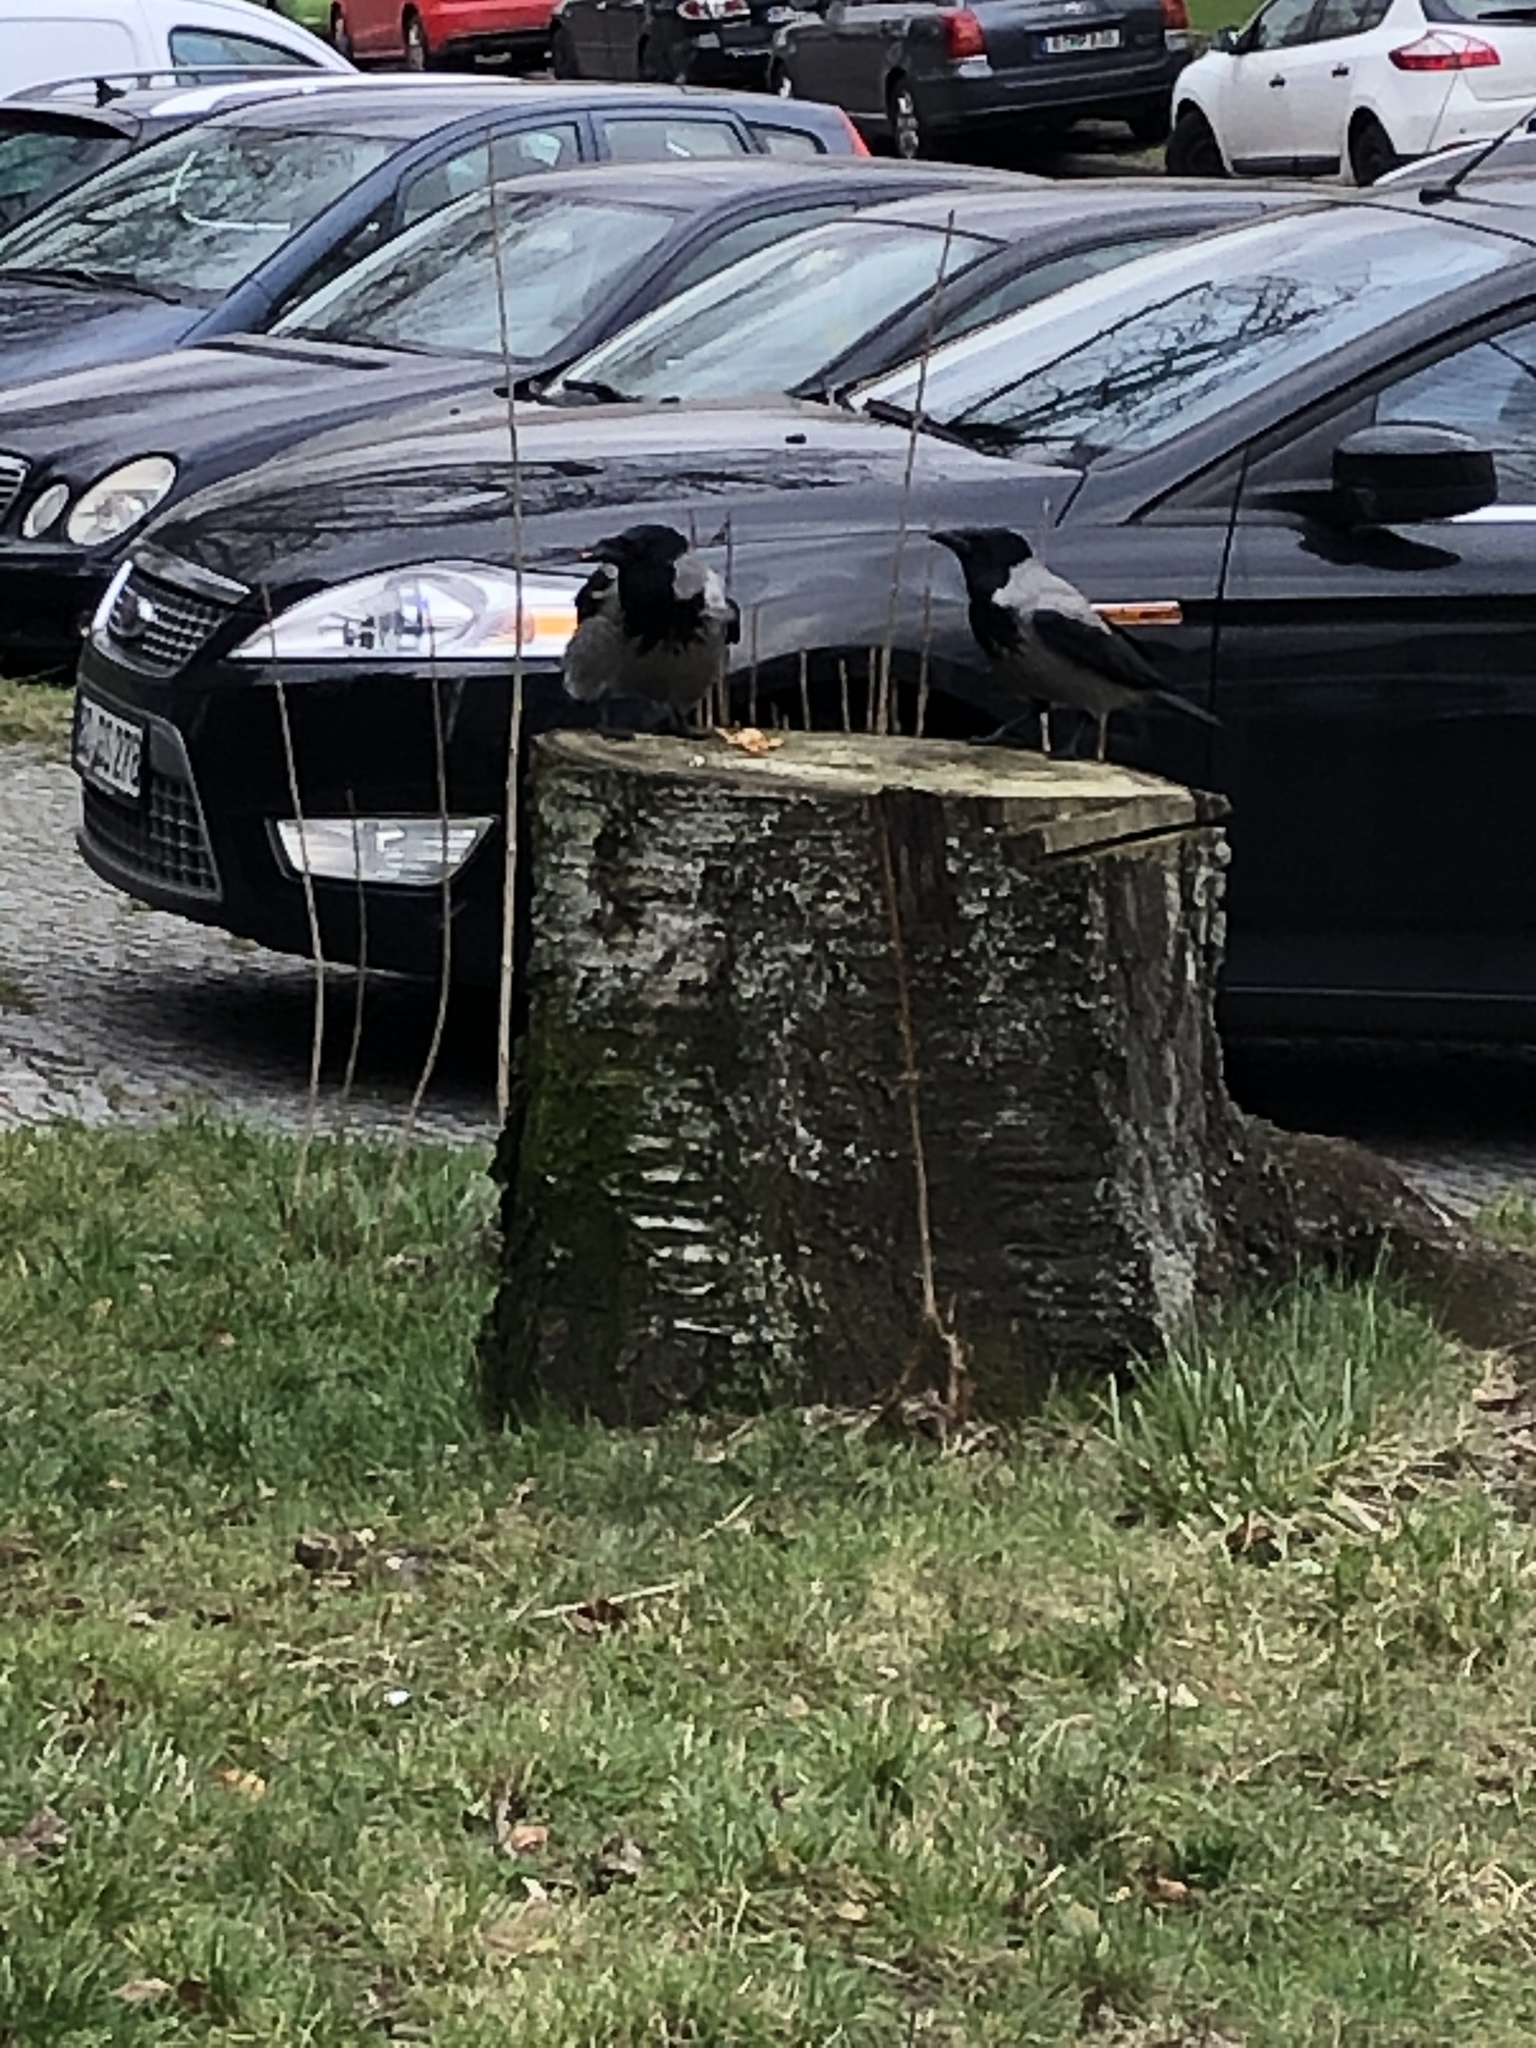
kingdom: Animalia
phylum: Chordata
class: Aves
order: Passeriformes
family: Corvidae
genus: Corvus
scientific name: Corvus cornix
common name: Hooded crow
